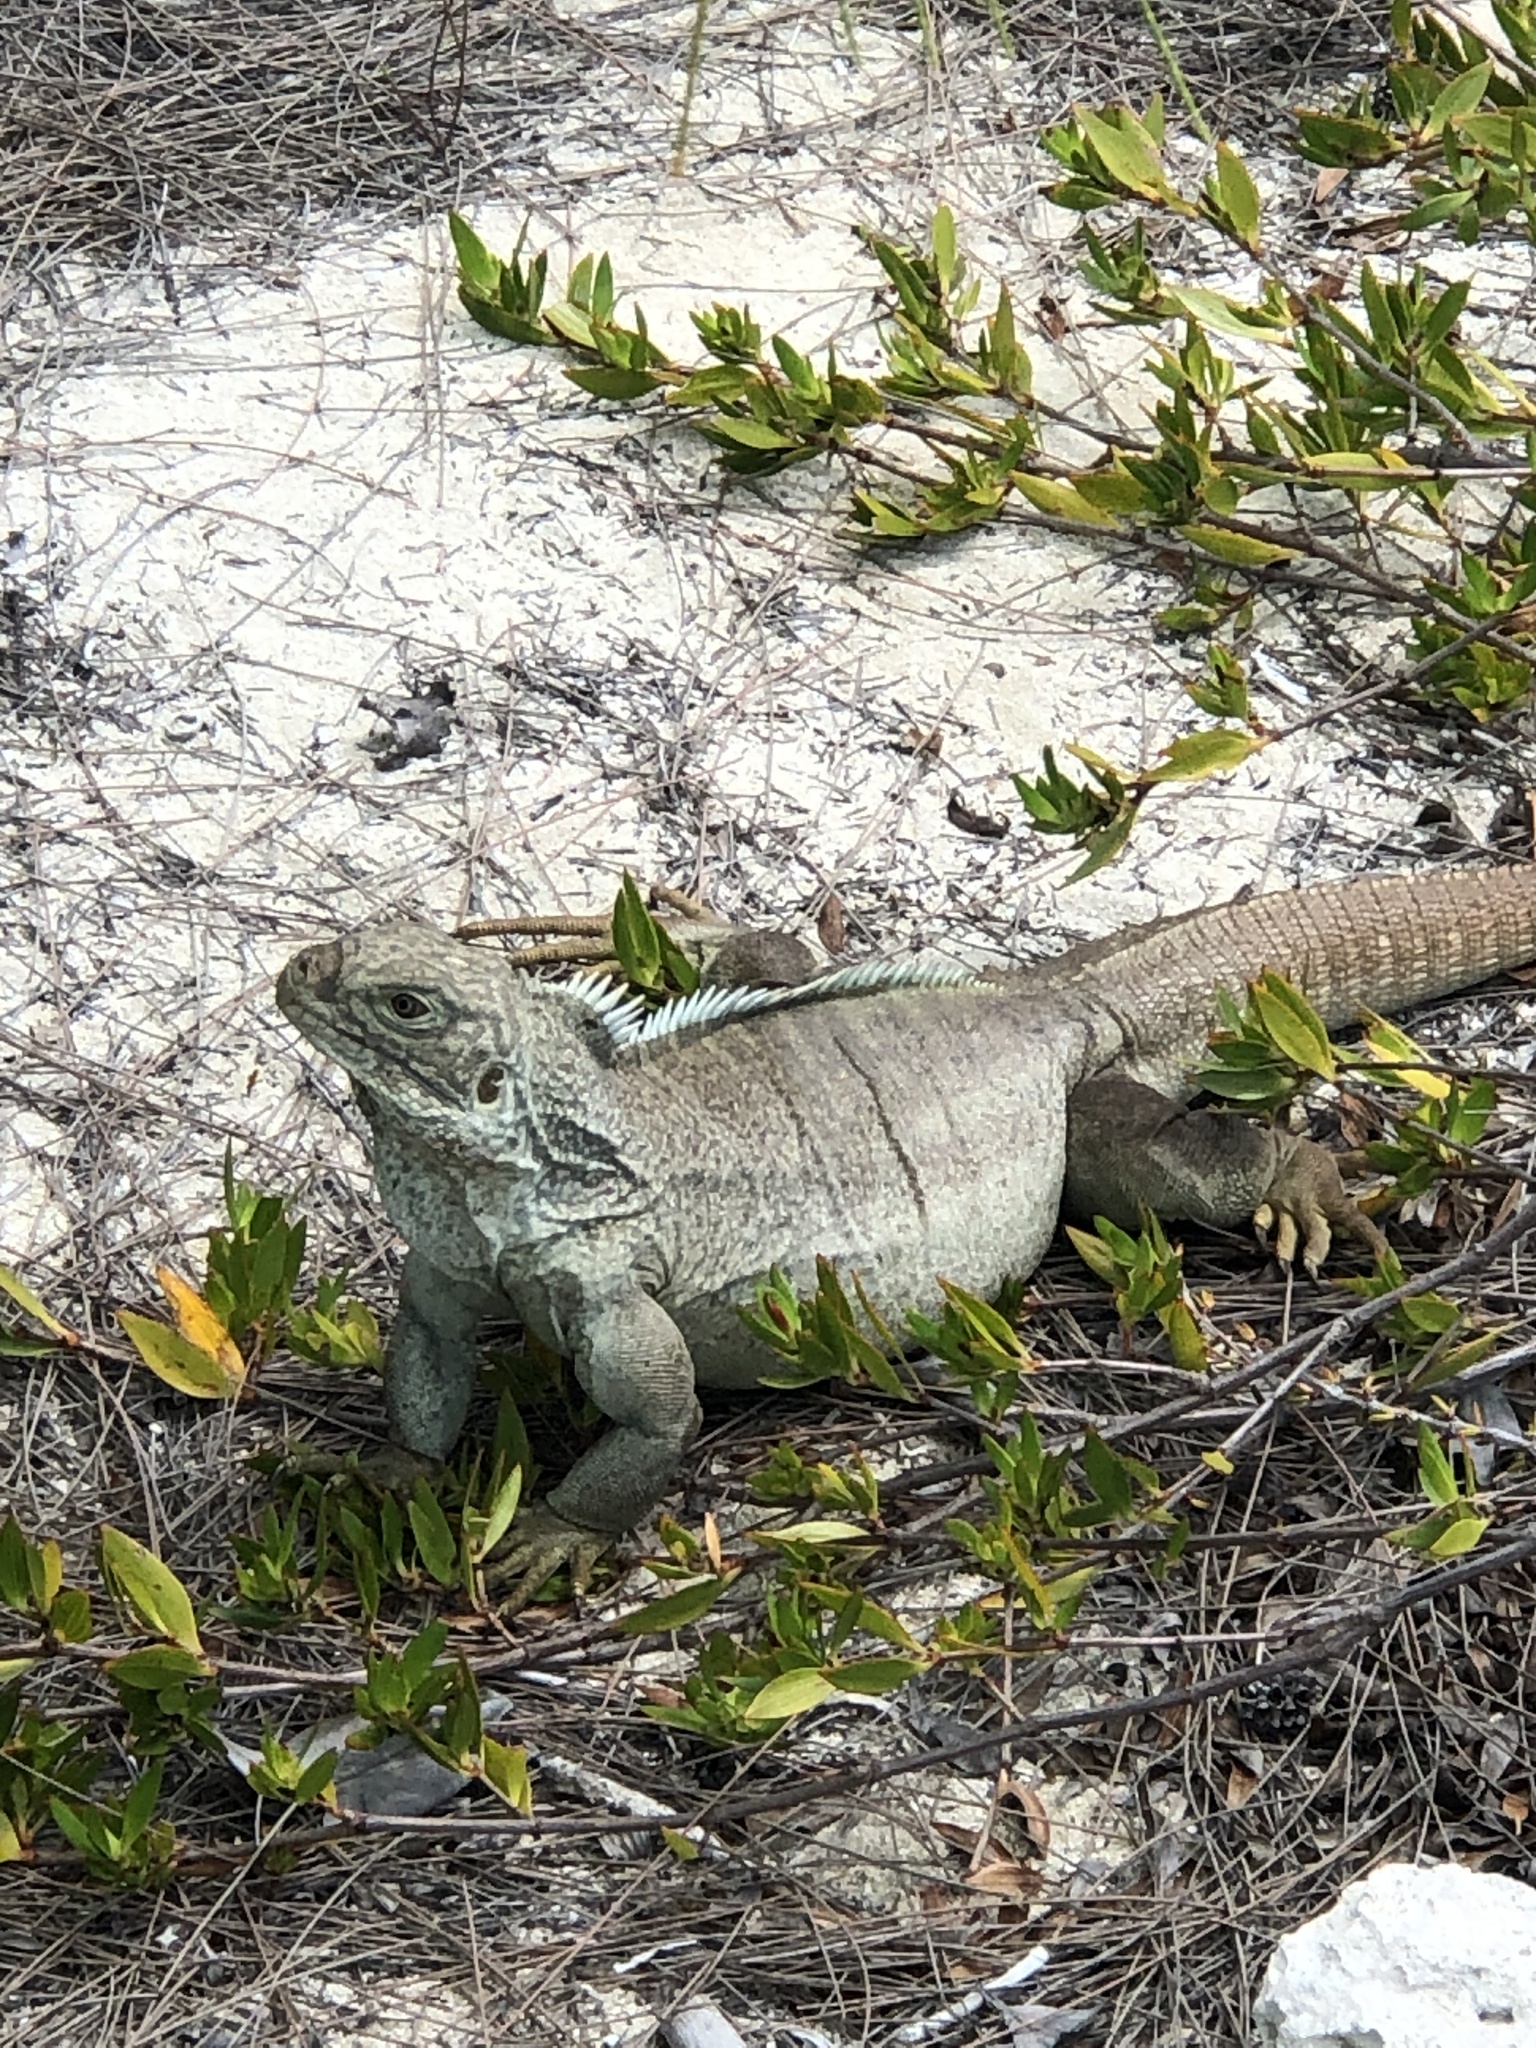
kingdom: Animalia
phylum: Chordata
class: Squamata
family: Iguanidae
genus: Cyclura
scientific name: Cyclura carinata
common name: Turks island iguana
